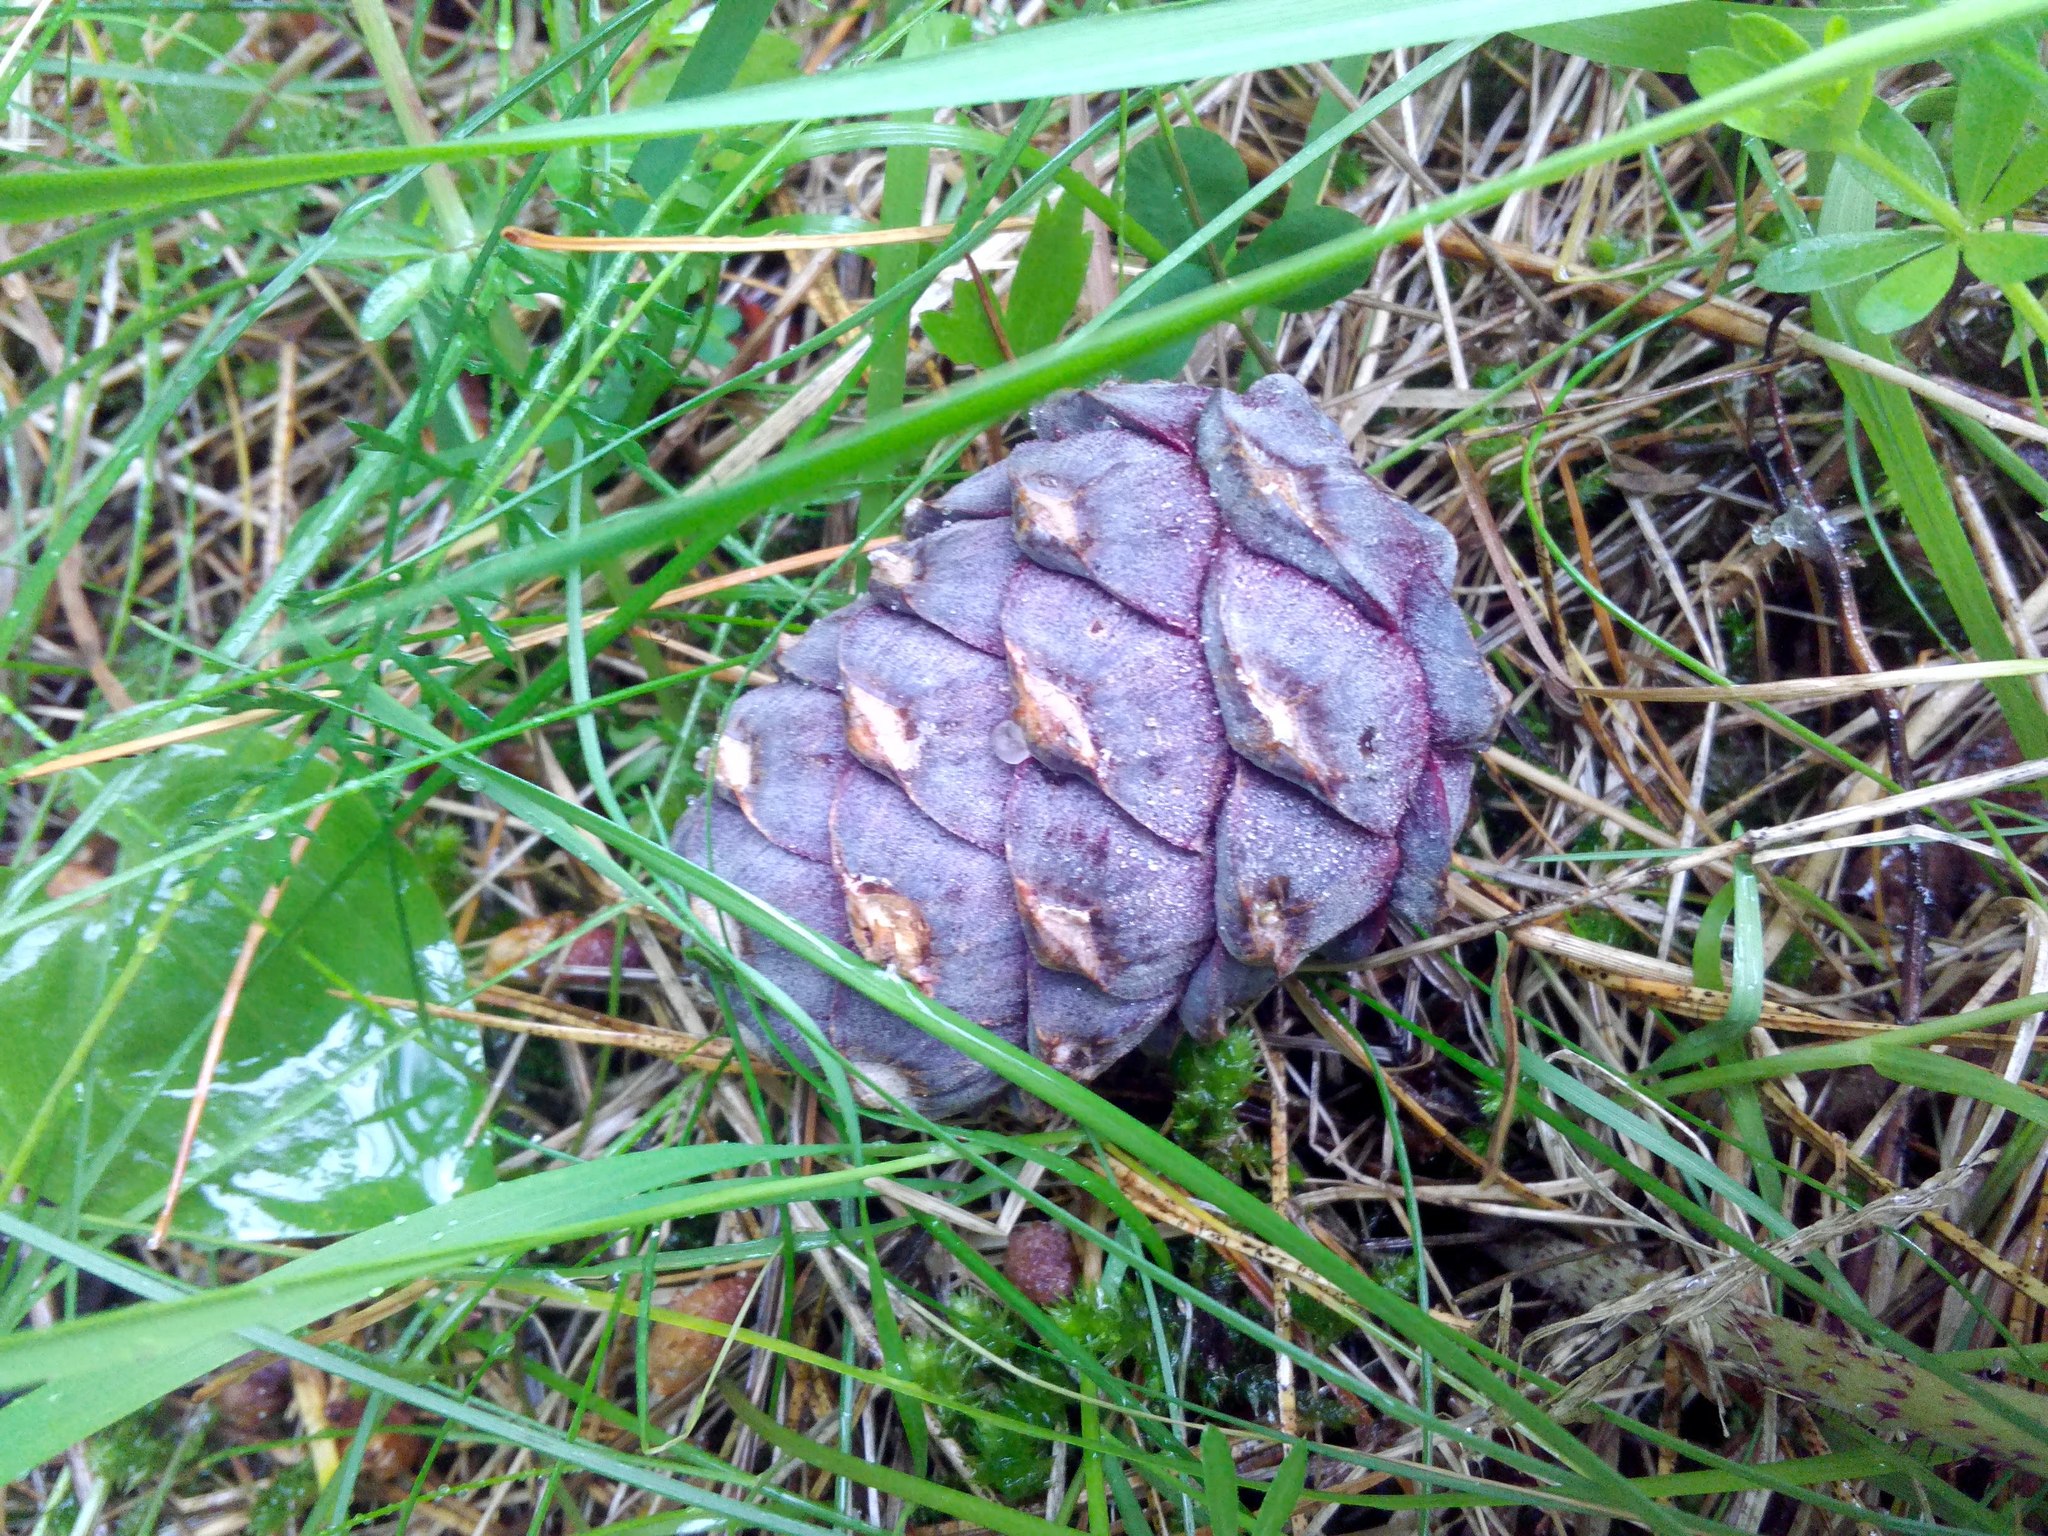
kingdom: Plantae
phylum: Tracheophyta
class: Pinopsida
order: Pinales
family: Pinaceae
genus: Pinus
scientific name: Pinus sibirica
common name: Siberian pine
